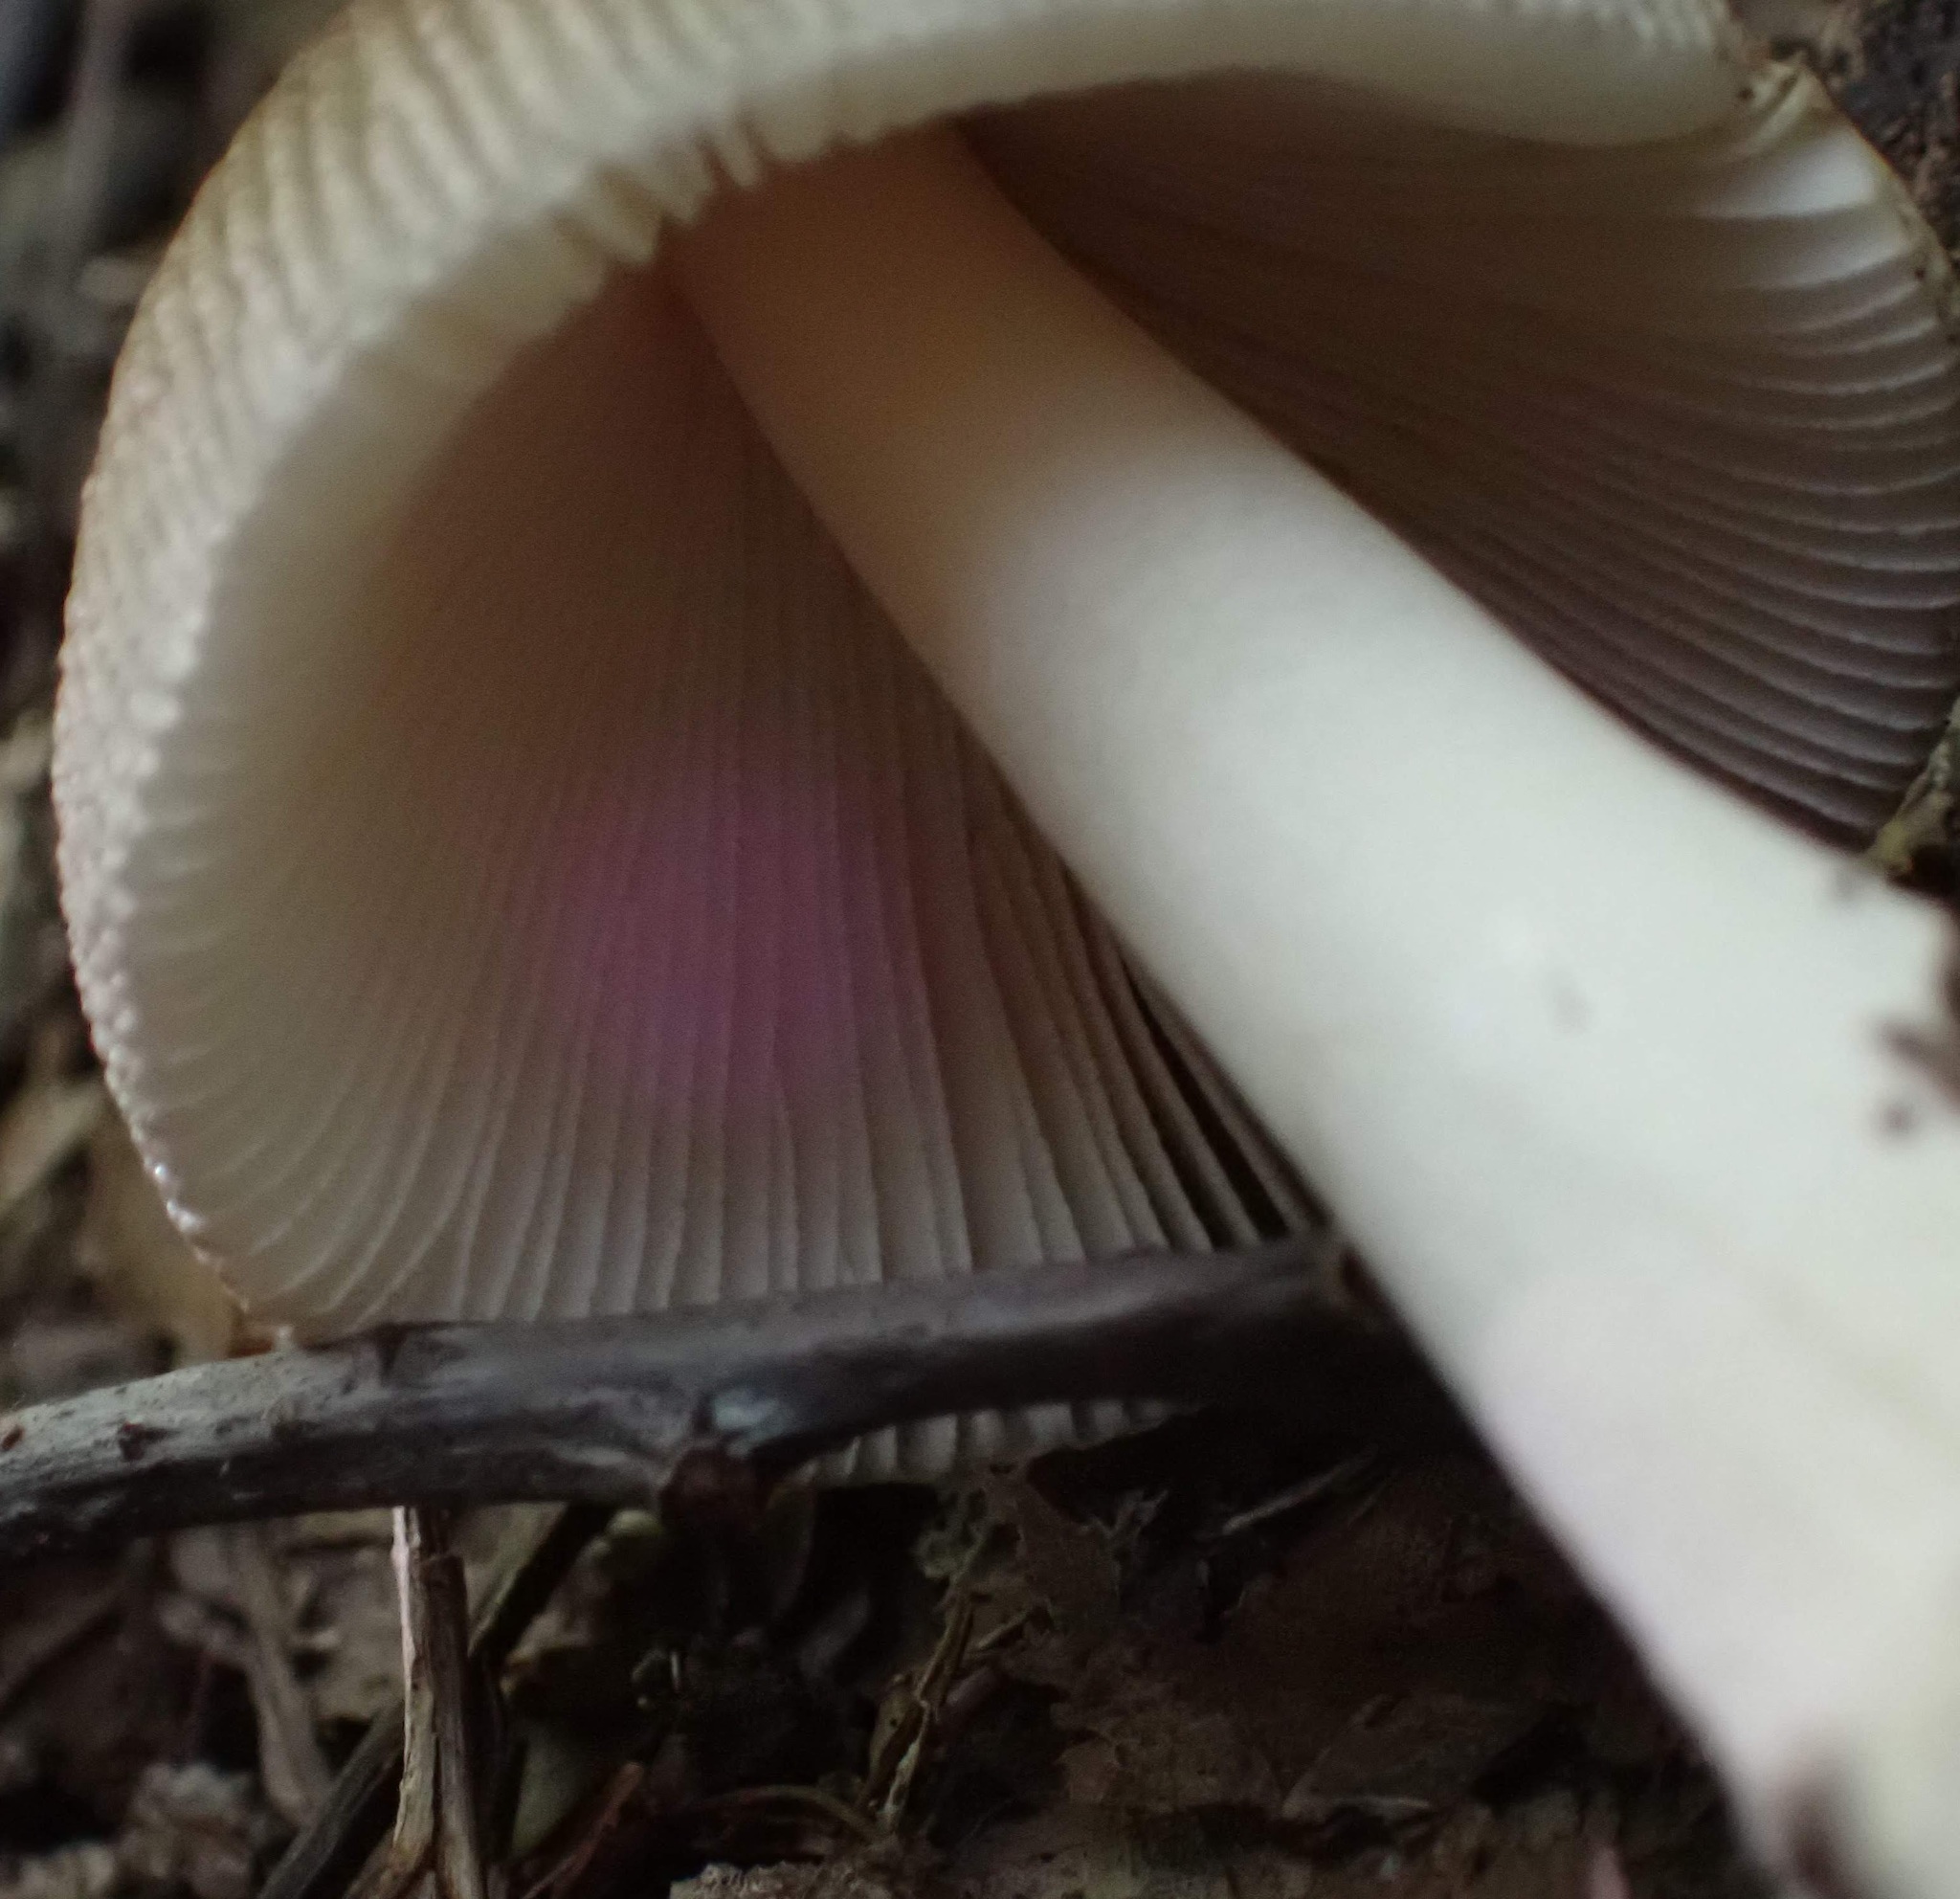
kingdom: Fungi
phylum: Basidiomycota
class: Agaricomycetes
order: Agaricales
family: Amanitaceae
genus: Amanita
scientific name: Amanita
